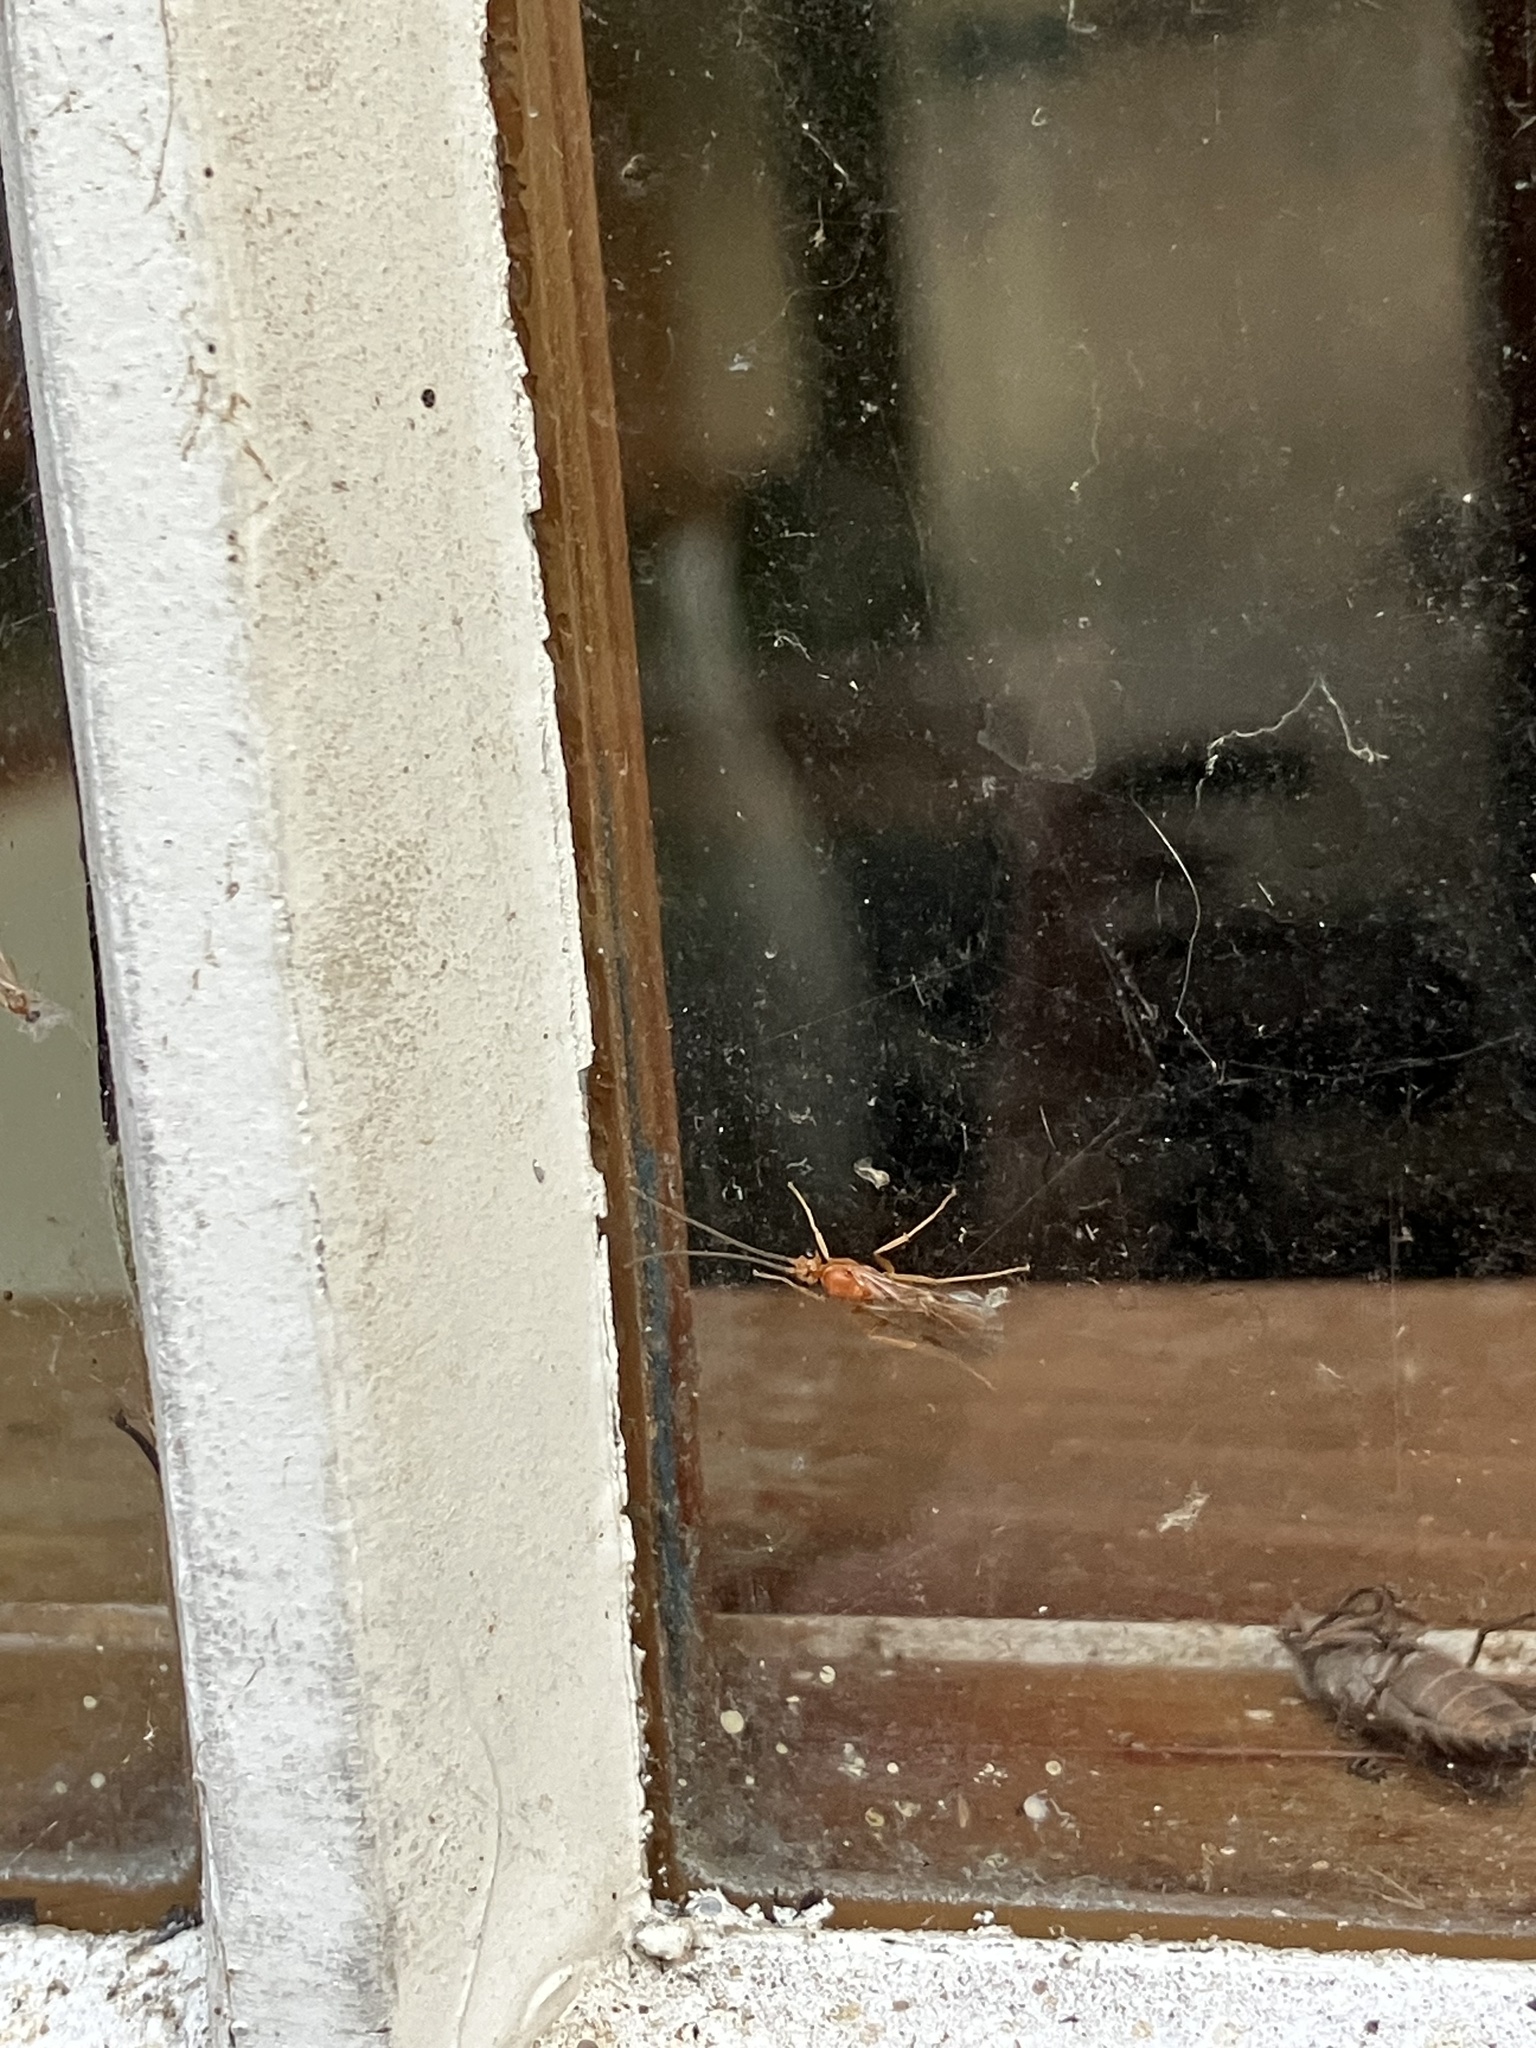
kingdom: Animalia
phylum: Arthropoda
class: Insecta
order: Hymenoptera
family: Formicidae
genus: Odontomachus
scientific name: Odontomachus
